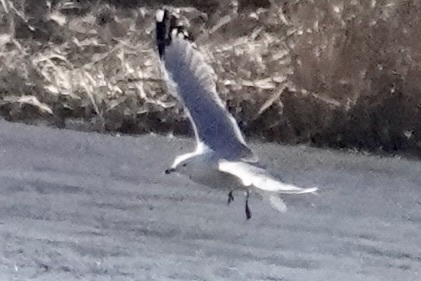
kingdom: Animalia
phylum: Chordata
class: Aves
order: Charadriiformes
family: Laridae
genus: Larus
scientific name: Larus delawarensis
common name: Ring-billed gull
